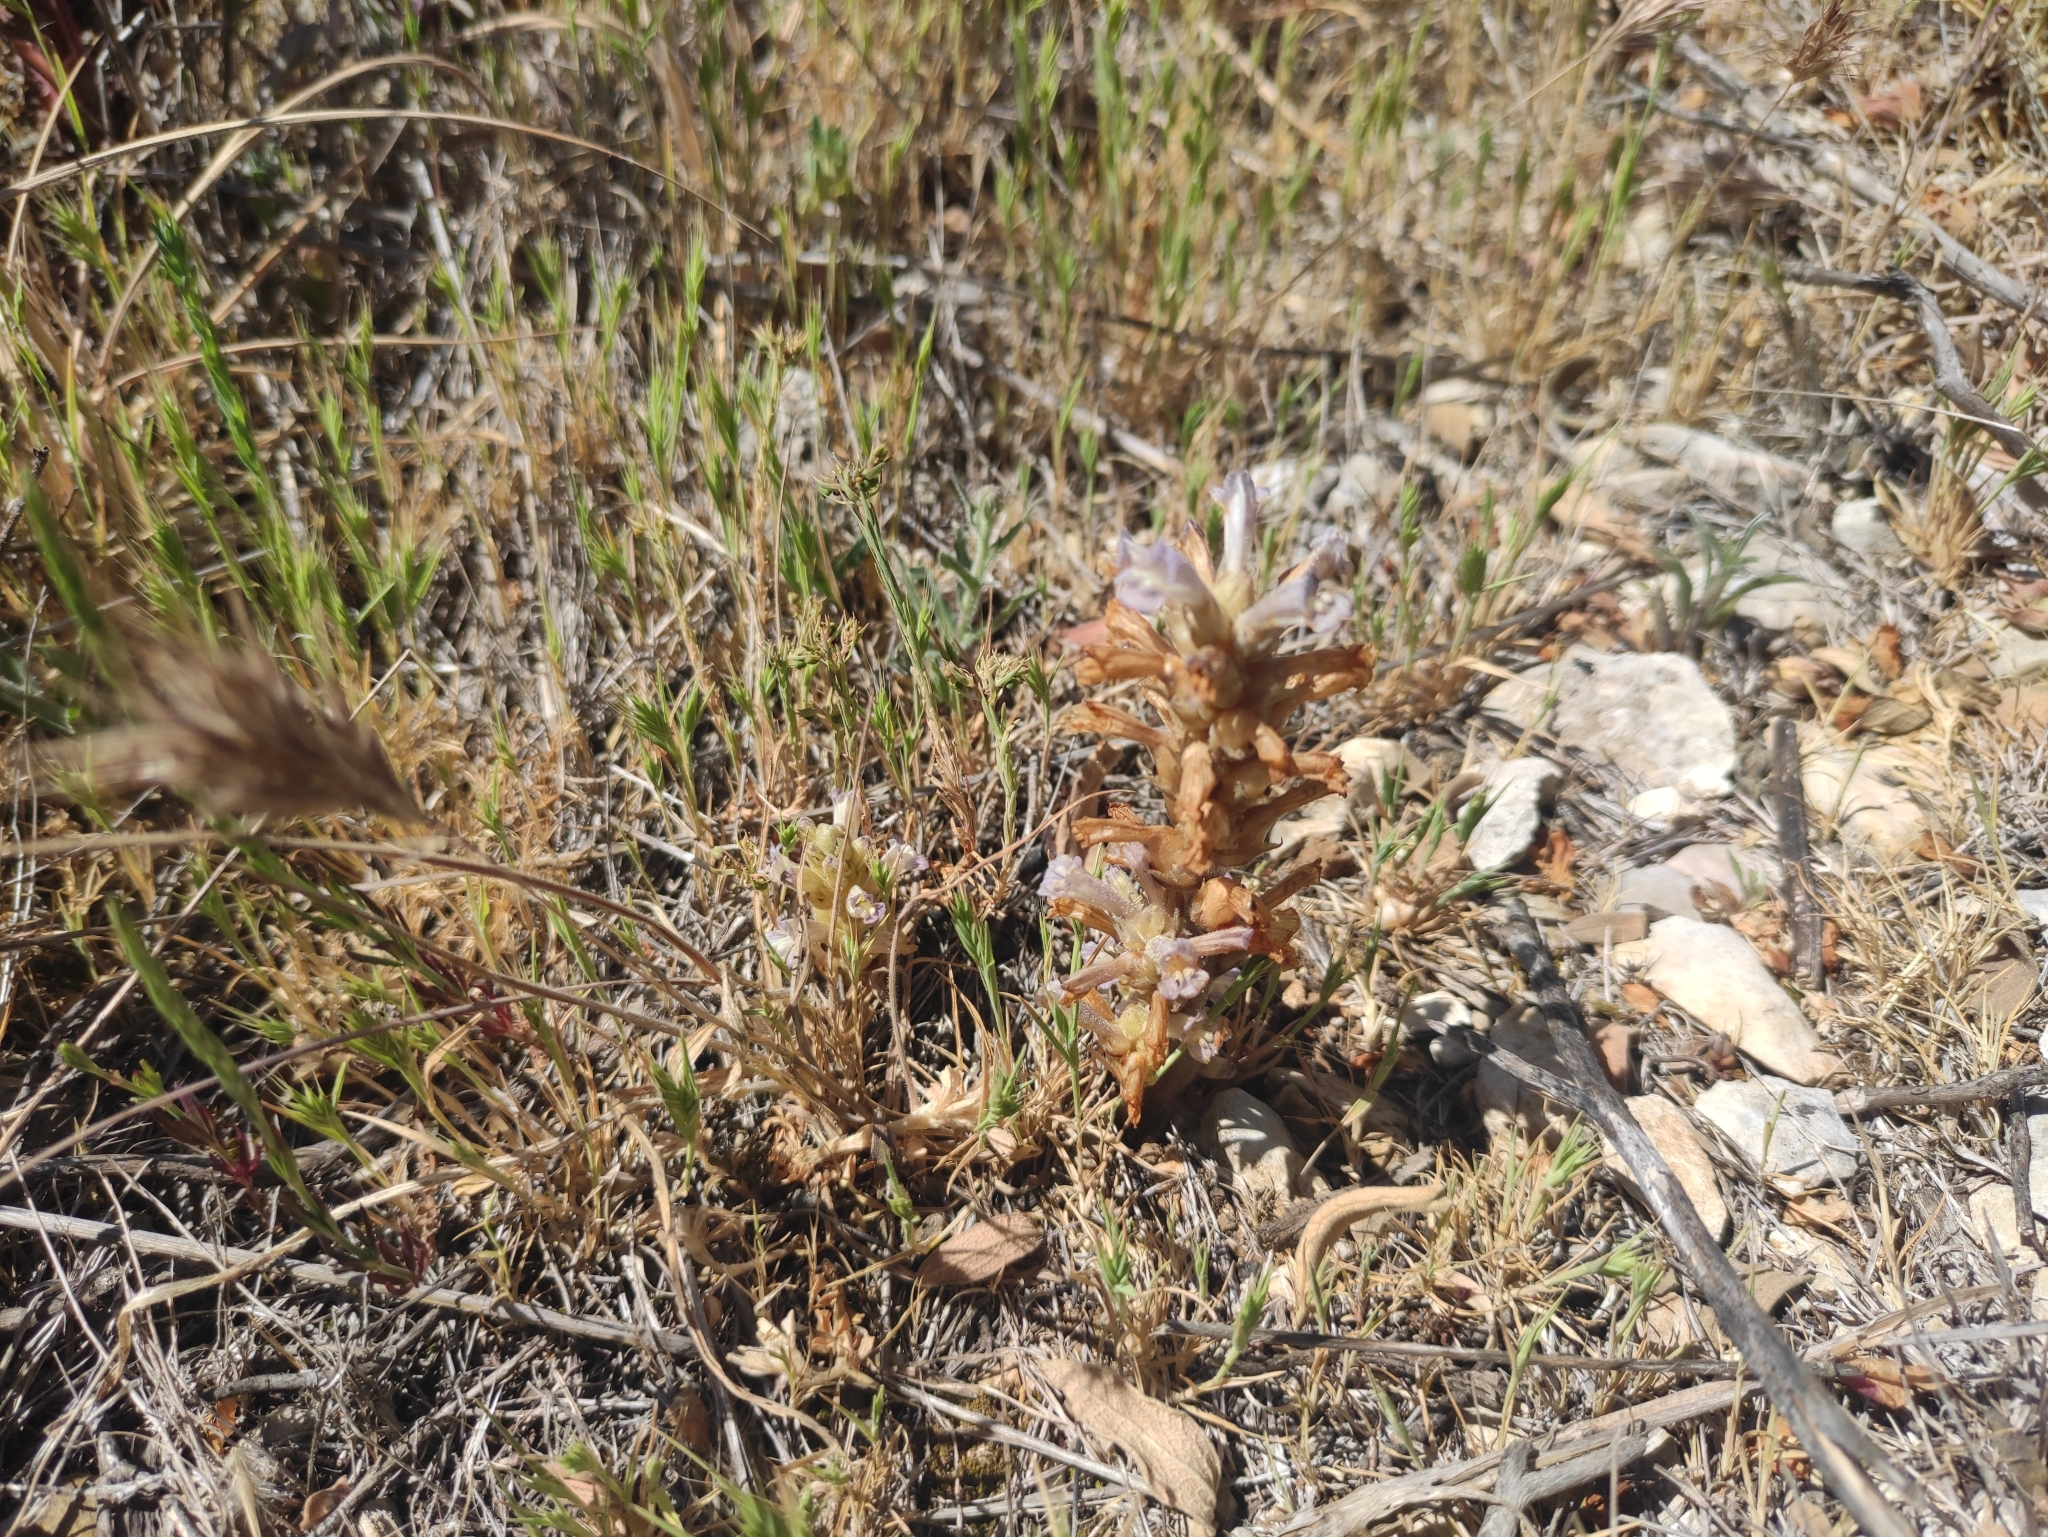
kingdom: Plantae
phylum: Tracheophyta
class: Magnoliopsida
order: Lamiales
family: Orobanchaceae
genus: Phelipanche
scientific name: Phelipanche rosmarina
